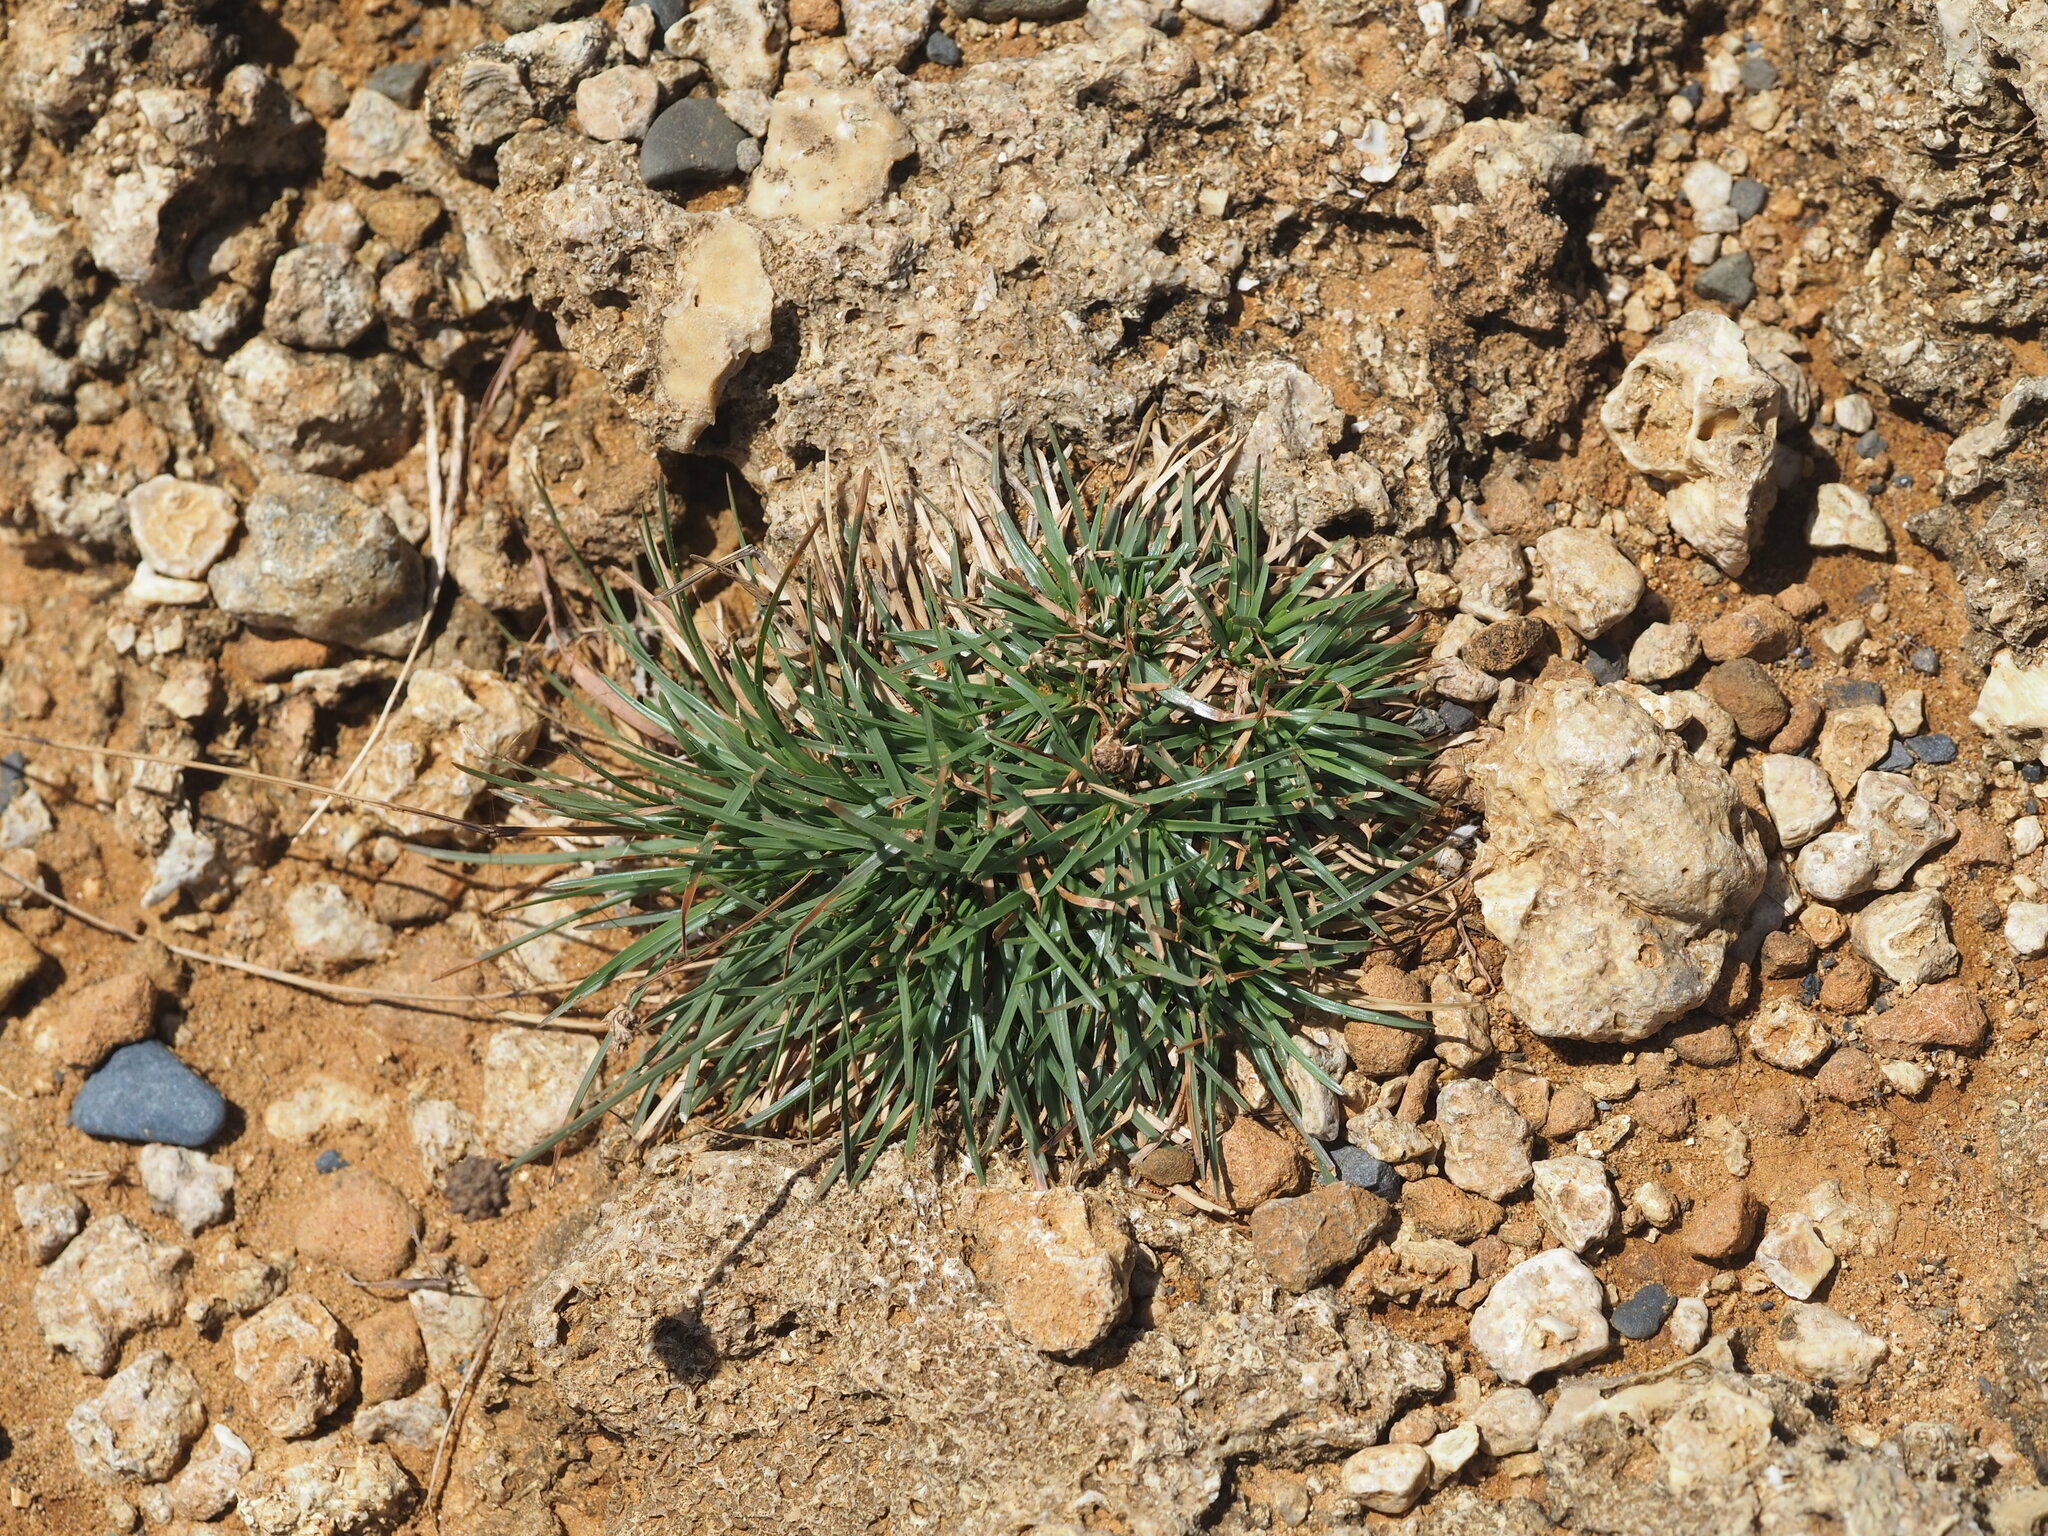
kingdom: Plantae
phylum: Tracheophyta
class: Liliopsida
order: Poales
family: Cyperaceae
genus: Fimbristylis
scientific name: Fimbristylis cymosa
